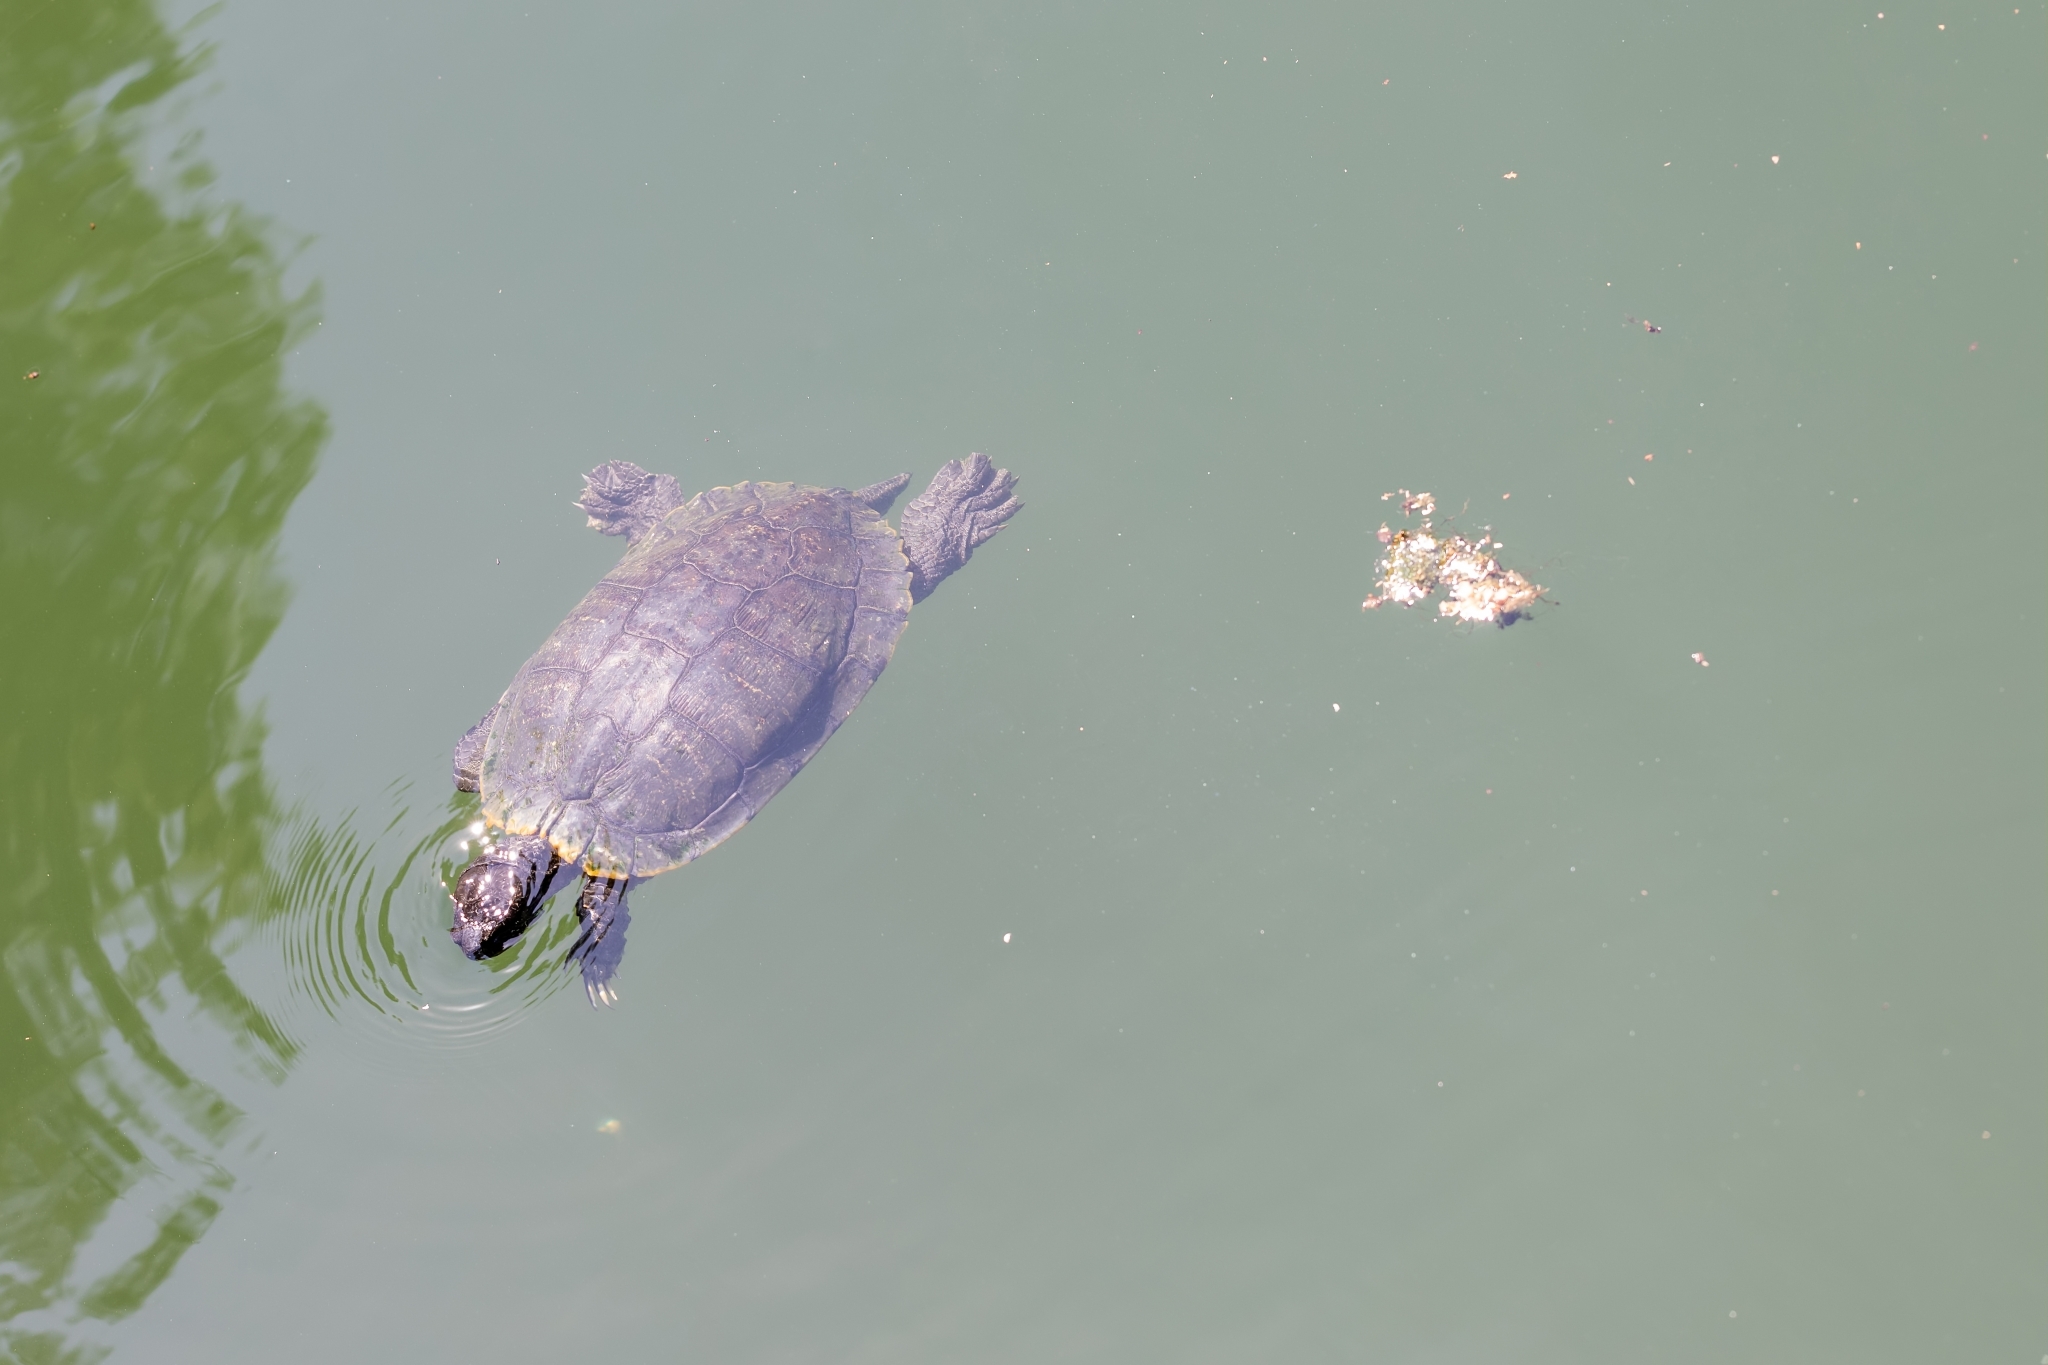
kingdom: Animalia
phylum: Chordata
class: Testudines
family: Emydidae
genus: Trachemys
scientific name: Trachemys scripta
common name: Slider
